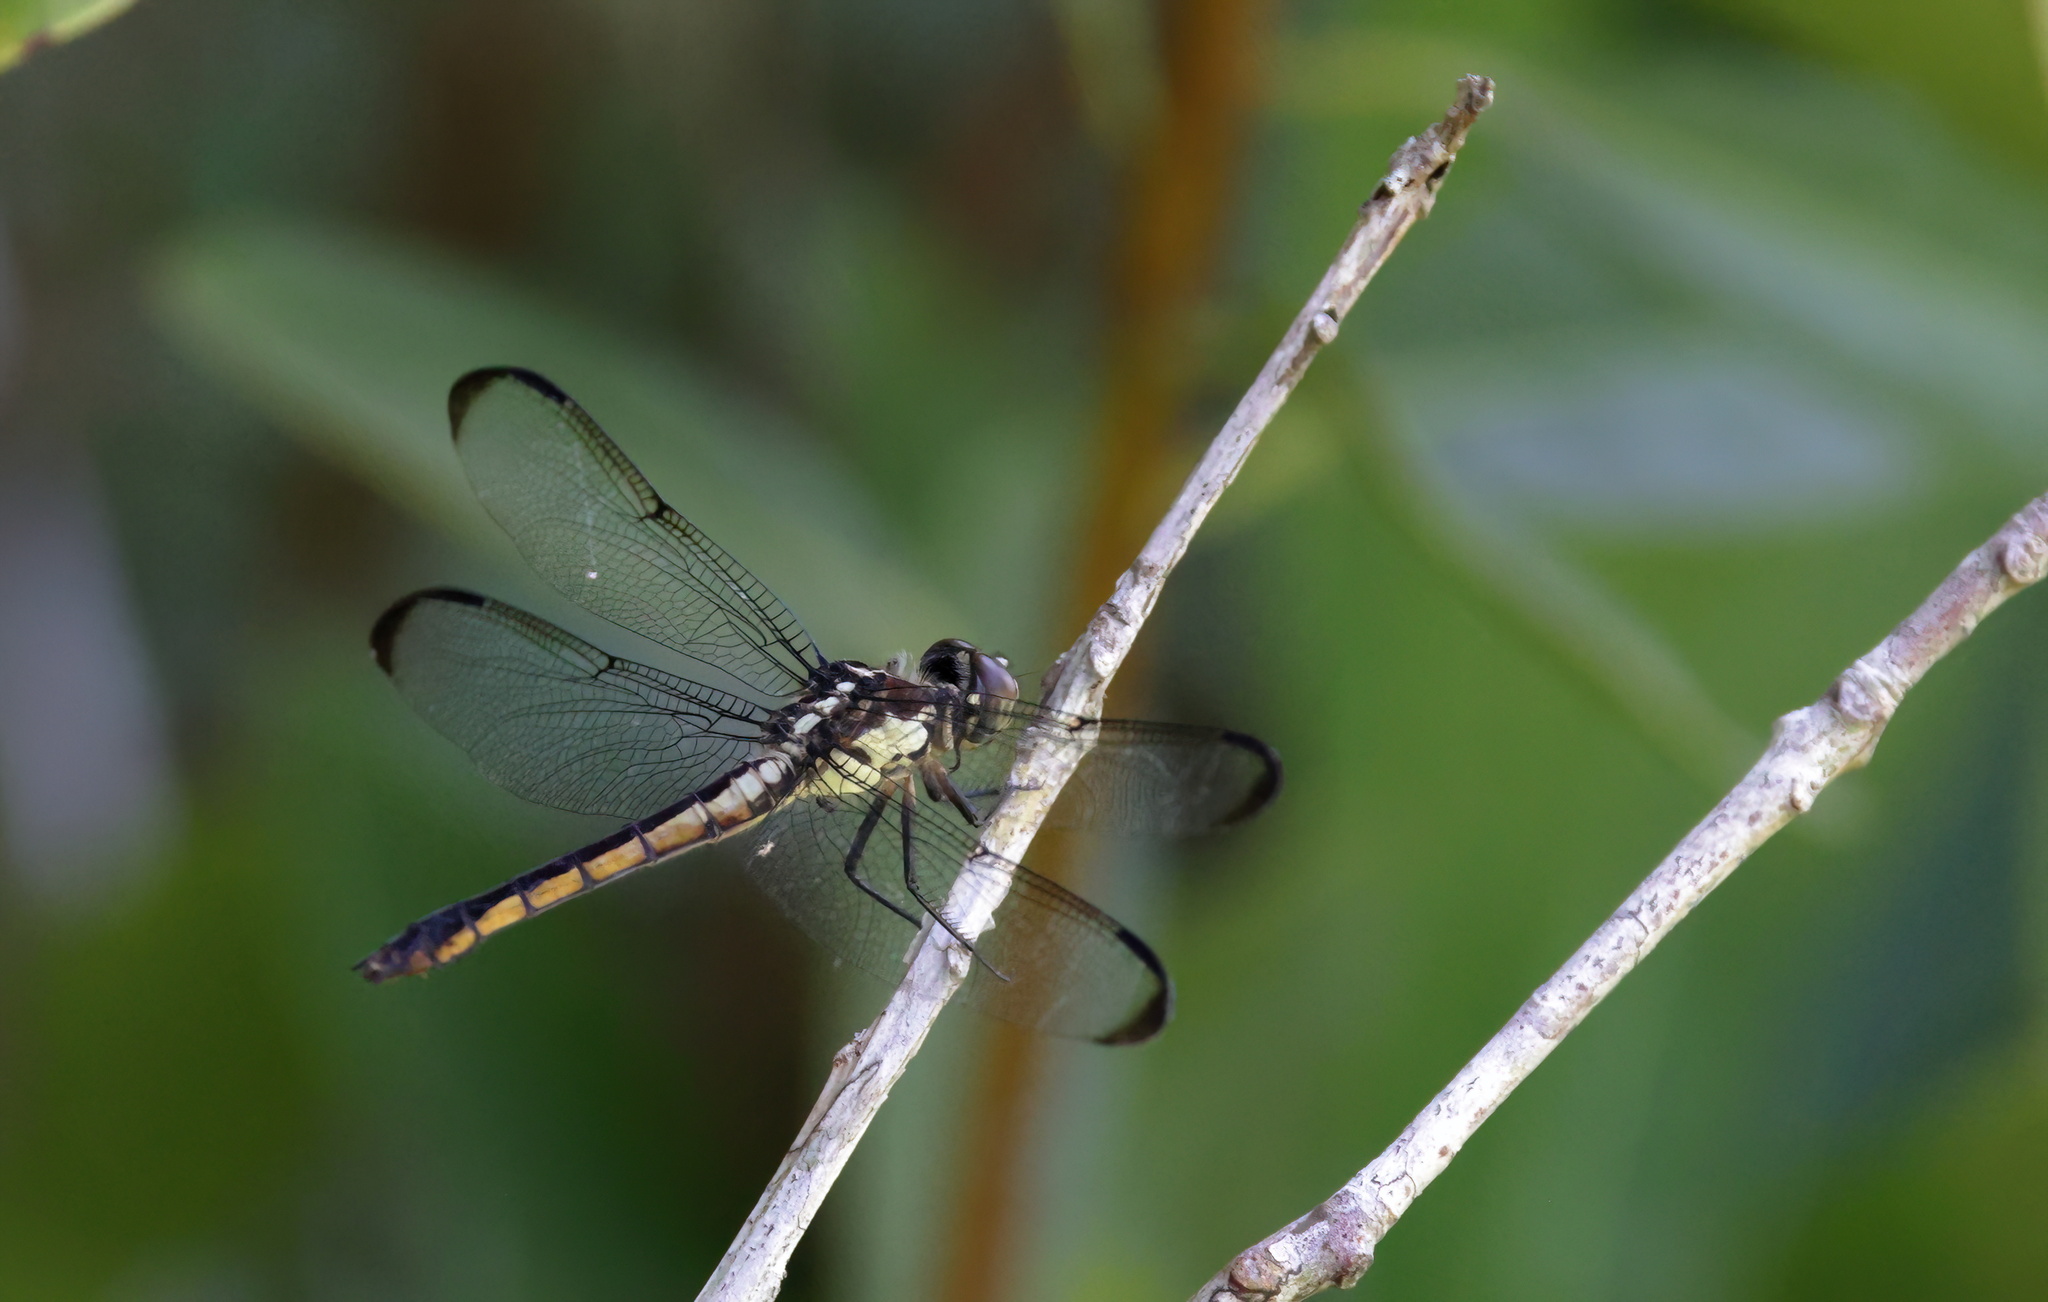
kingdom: Animalia
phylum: Arthropoda
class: Insecta
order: Odonata
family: Libellulidae
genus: Libellula
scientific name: Libellula incesta
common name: Slaty skimmer
